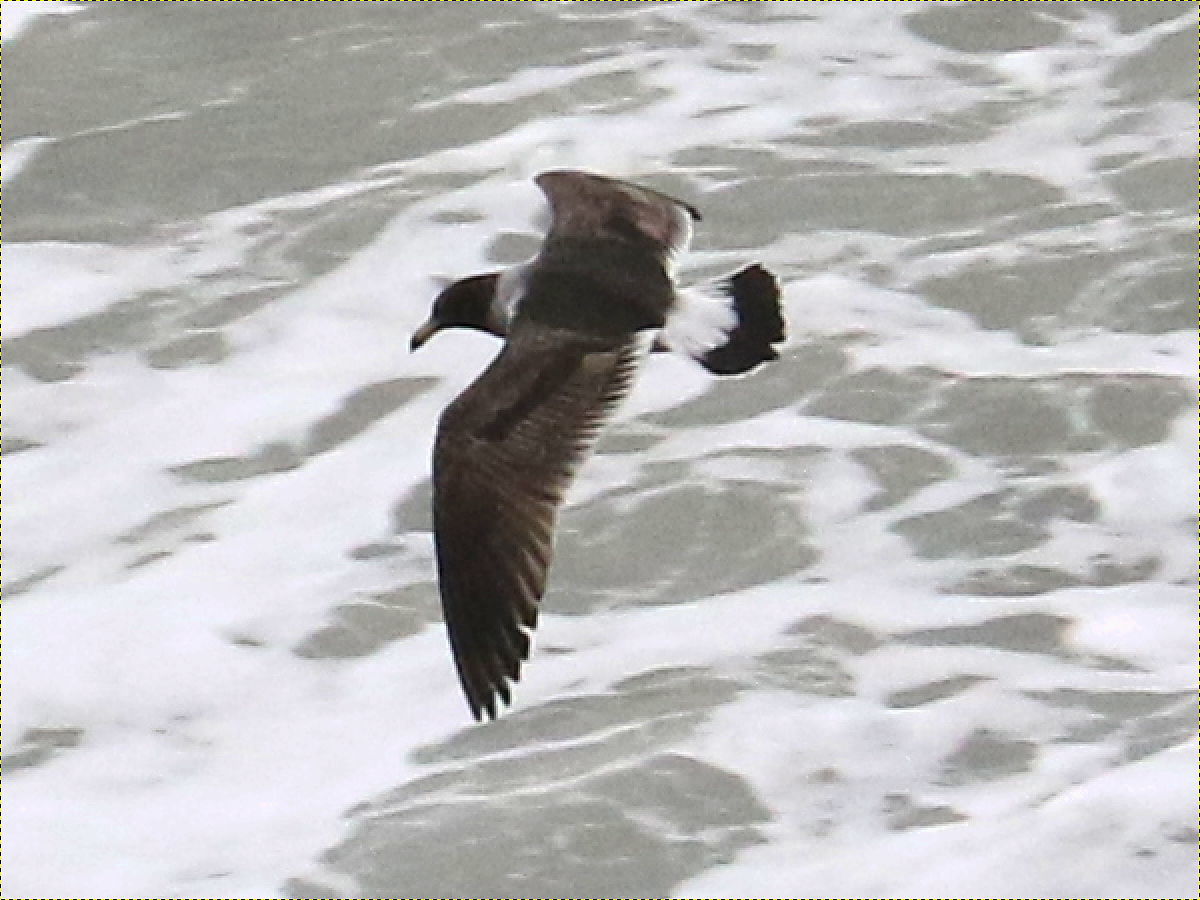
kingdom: Animalia
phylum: Chordata
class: Aves
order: Charadriiformes
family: Laridae
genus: Larus
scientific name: Larus belcheri
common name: Belcher's gull
